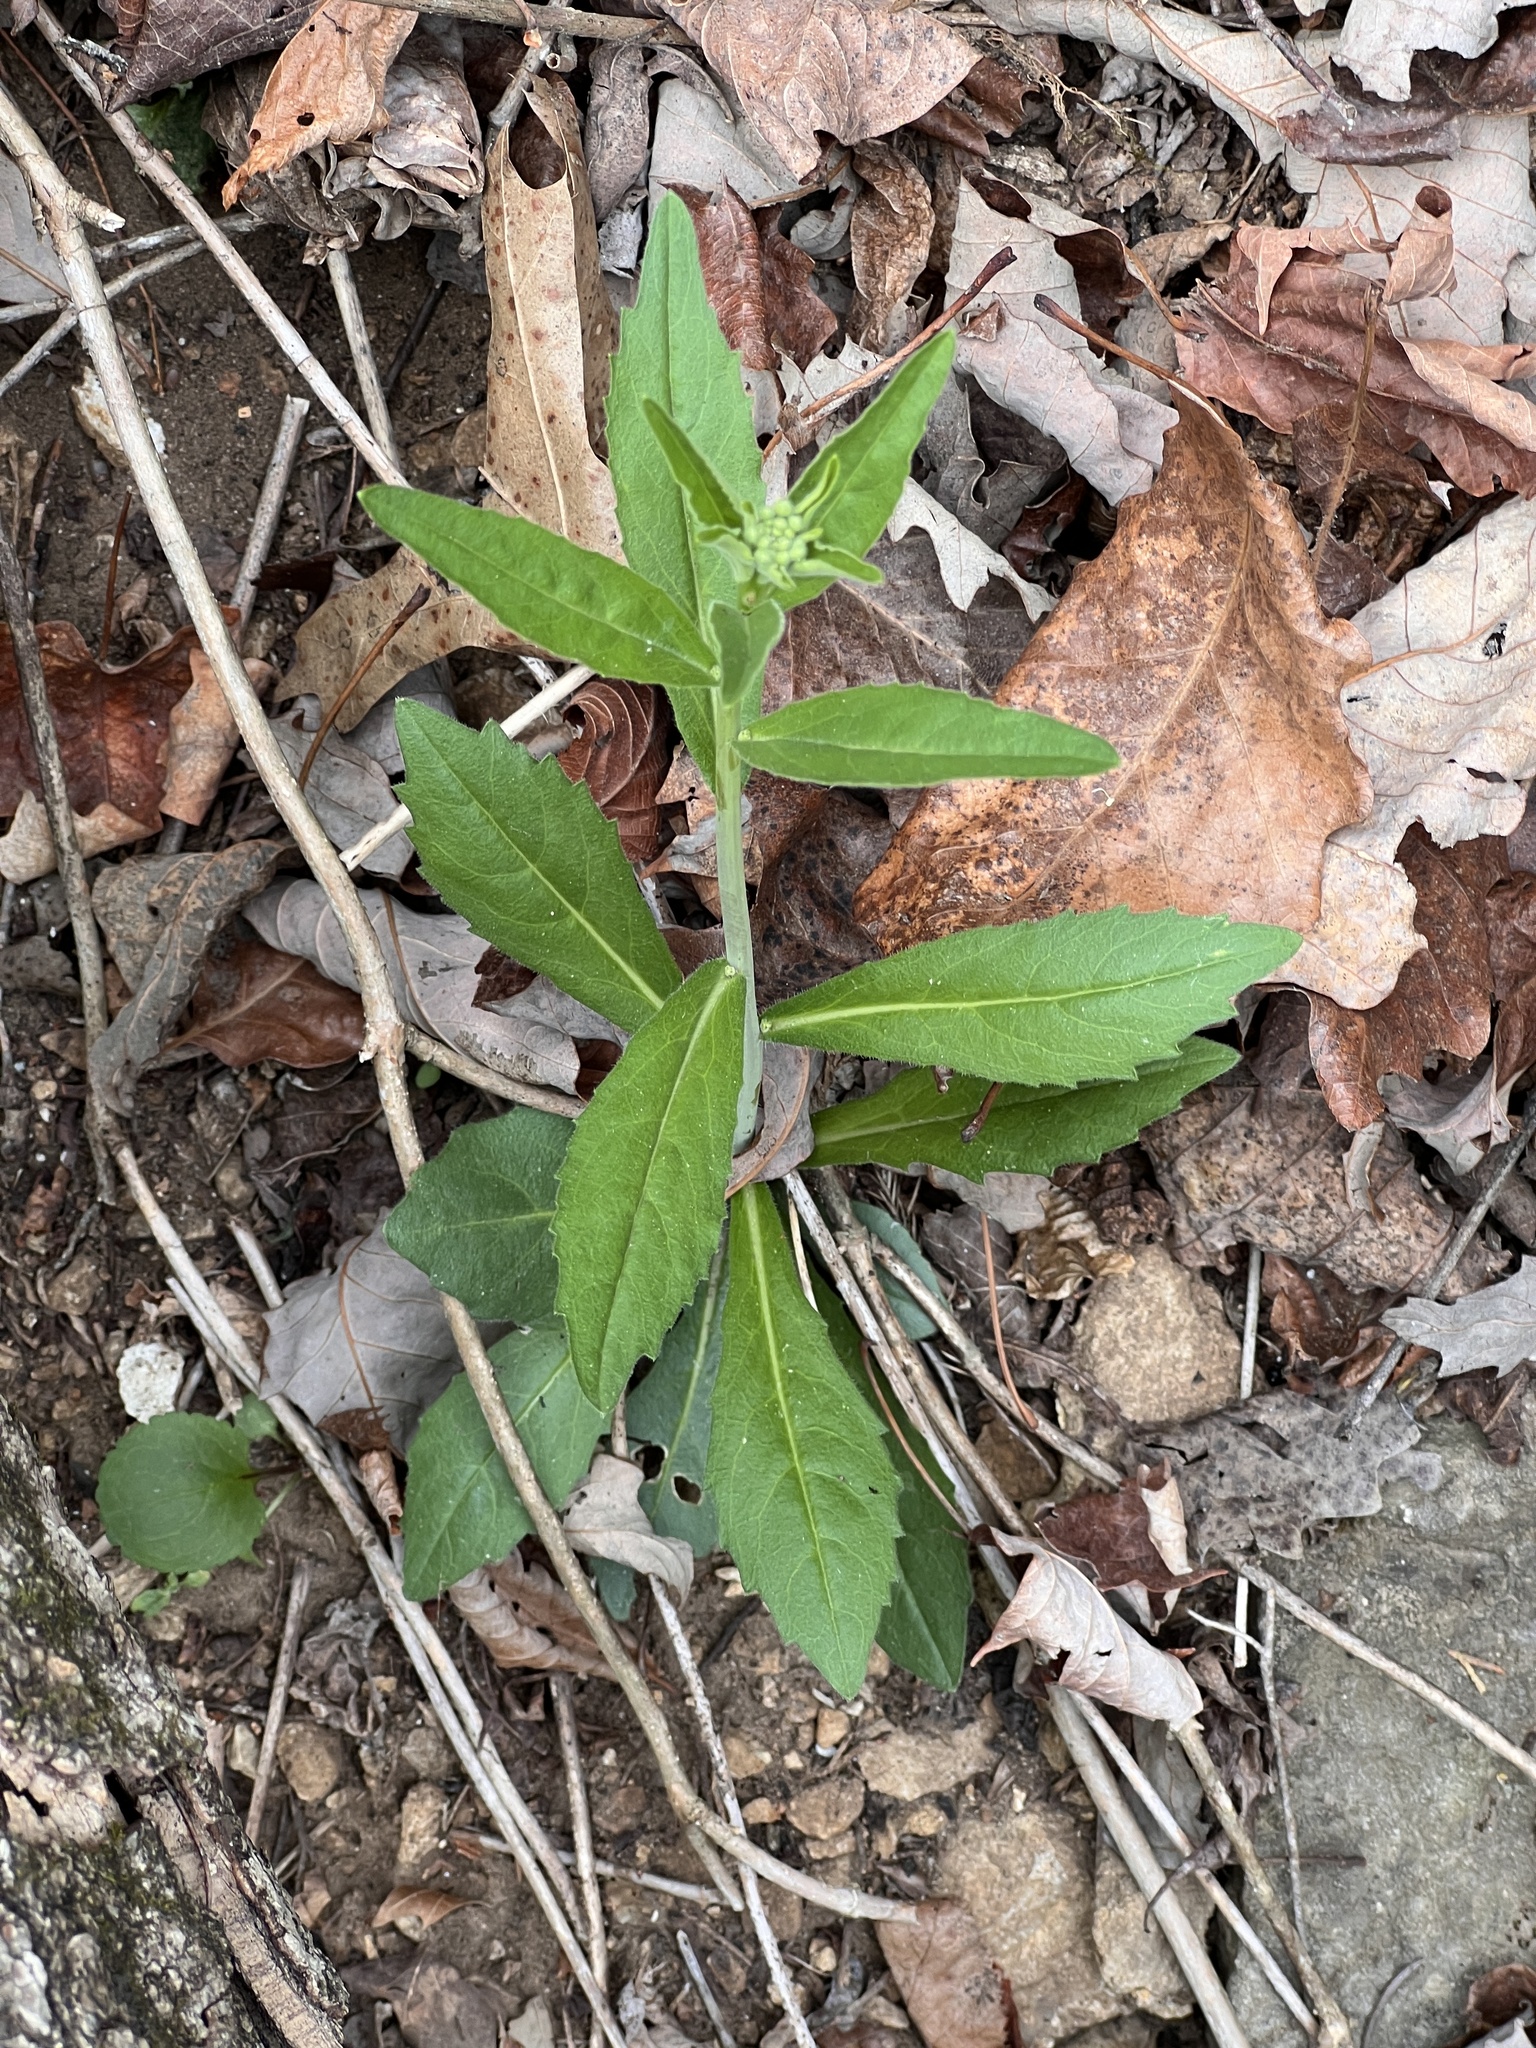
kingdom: Plantae
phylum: Tracheophyta
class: Magnoliopsida
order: Brassicales
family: Brassicaceae
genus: Borodinia
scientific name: Borodinia canadensis
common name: Sicklepod
